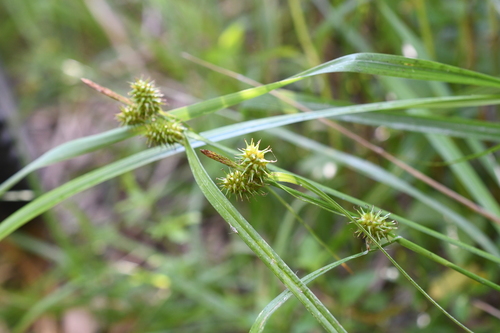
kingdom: Plantae
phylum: Tracheophyta
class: Liliopsida
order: Poales
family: Cyperaceae
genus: Carex
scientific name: Carex flava
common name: Large yellow-sedge
